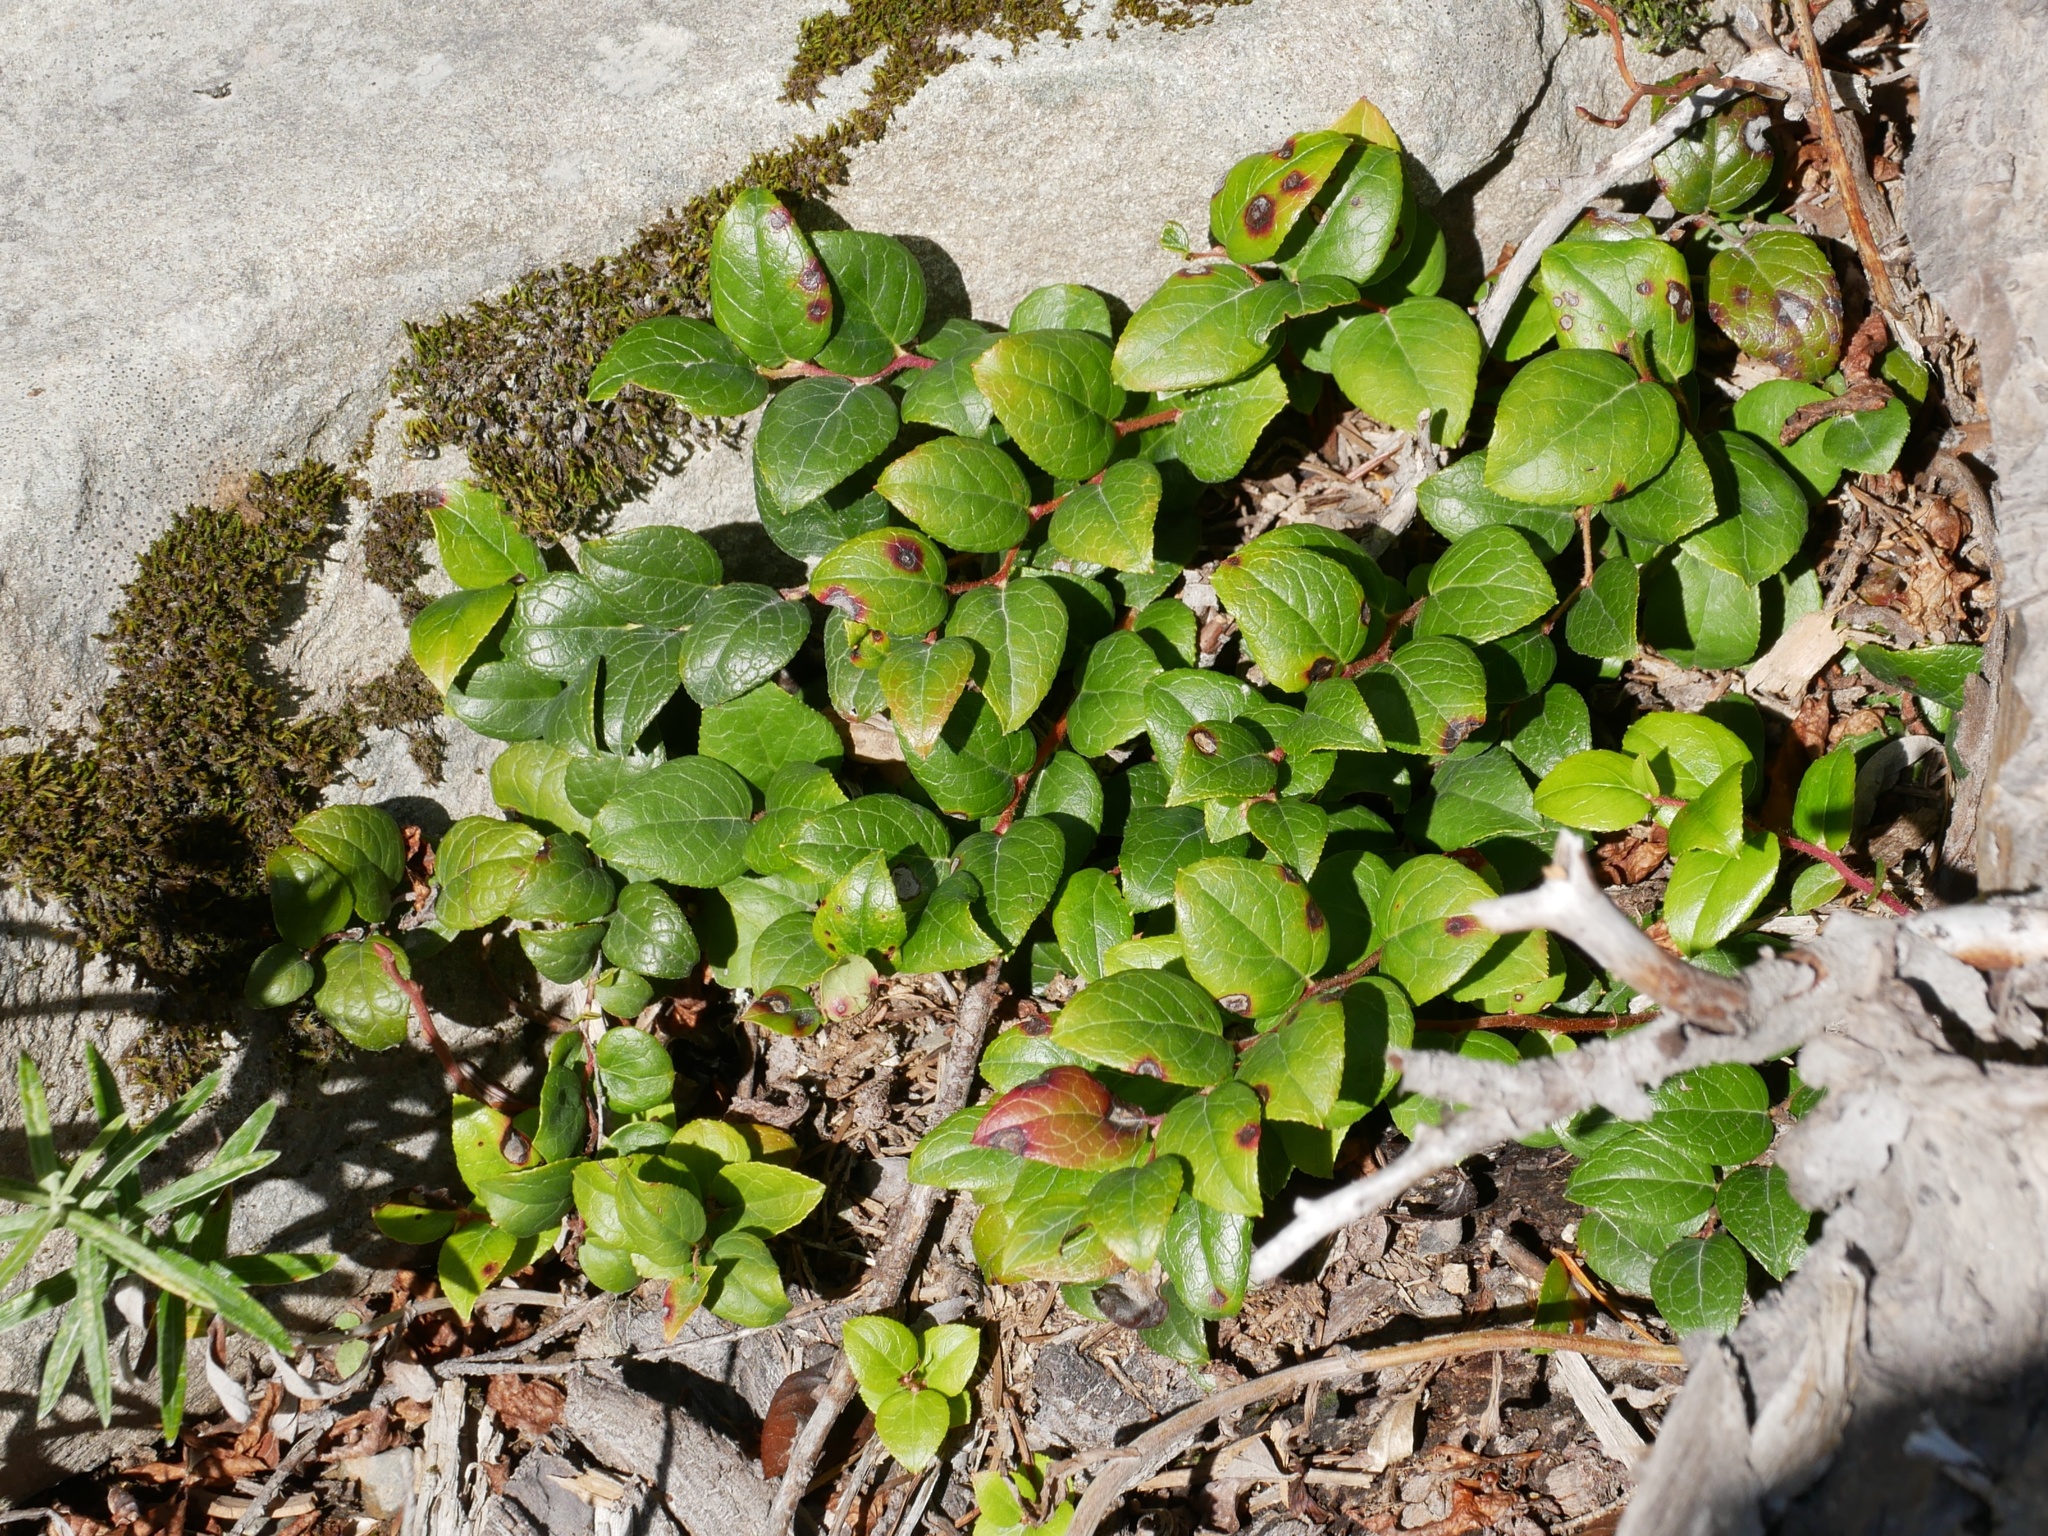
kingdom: Plantae
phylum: Tracheophyta
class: Magnoliopsida
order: Ericales
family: Ericaceae
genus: Gaultheria
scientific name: Gaultheria ovatifolia
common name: Oregon wintergreen
